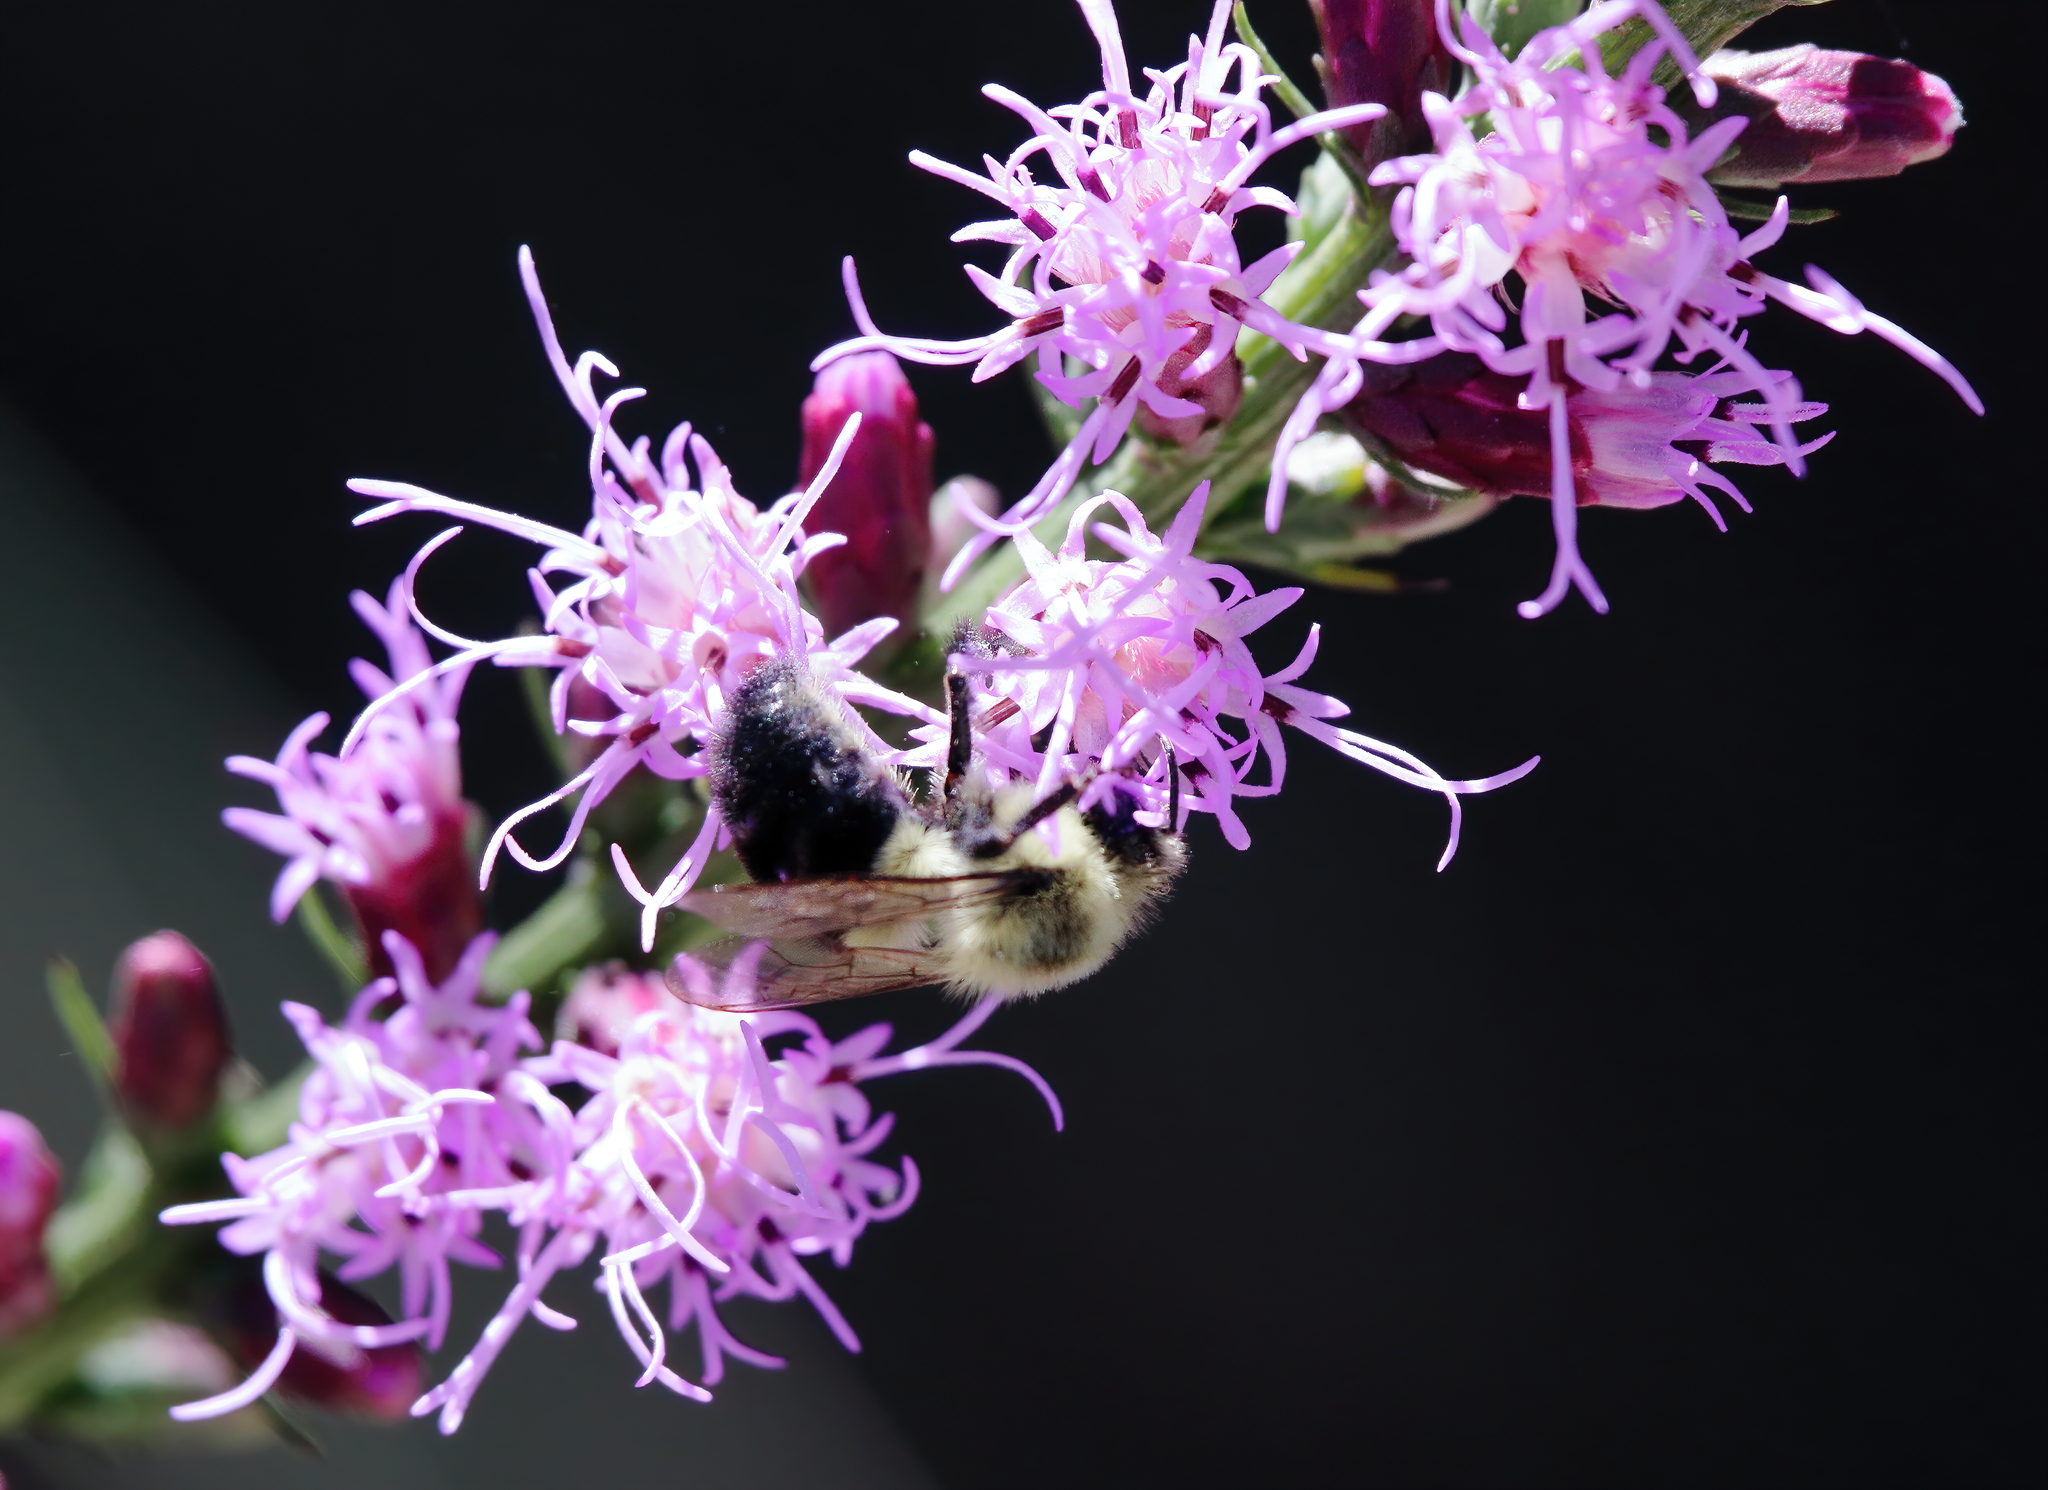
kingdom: Animalia
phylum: Arthropoda
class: Insecta
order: Hymenoptera
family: Apidae
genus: Bombus
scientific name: Bombus impatiens
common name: Common eastern bumble bee
